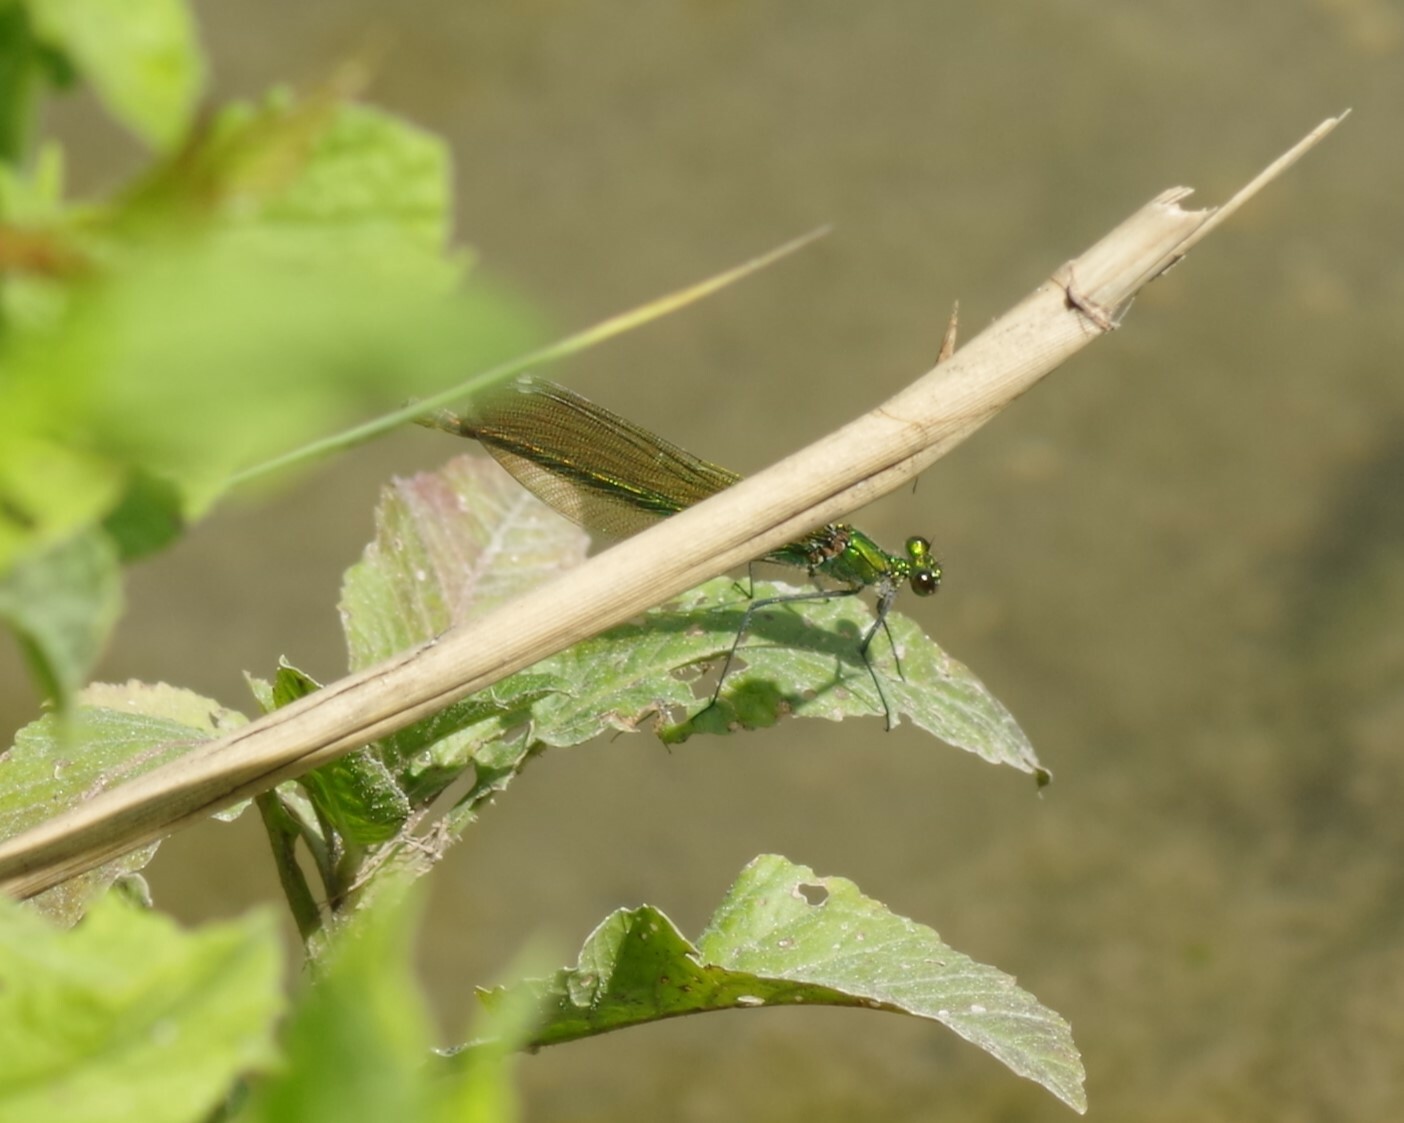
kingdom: Animalia
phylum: Arthropoda
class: Insecta
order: Odonata
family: Calopterygidae
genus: Calopteryx
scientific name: Calopteryx splendens
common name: Banded demoiselle
